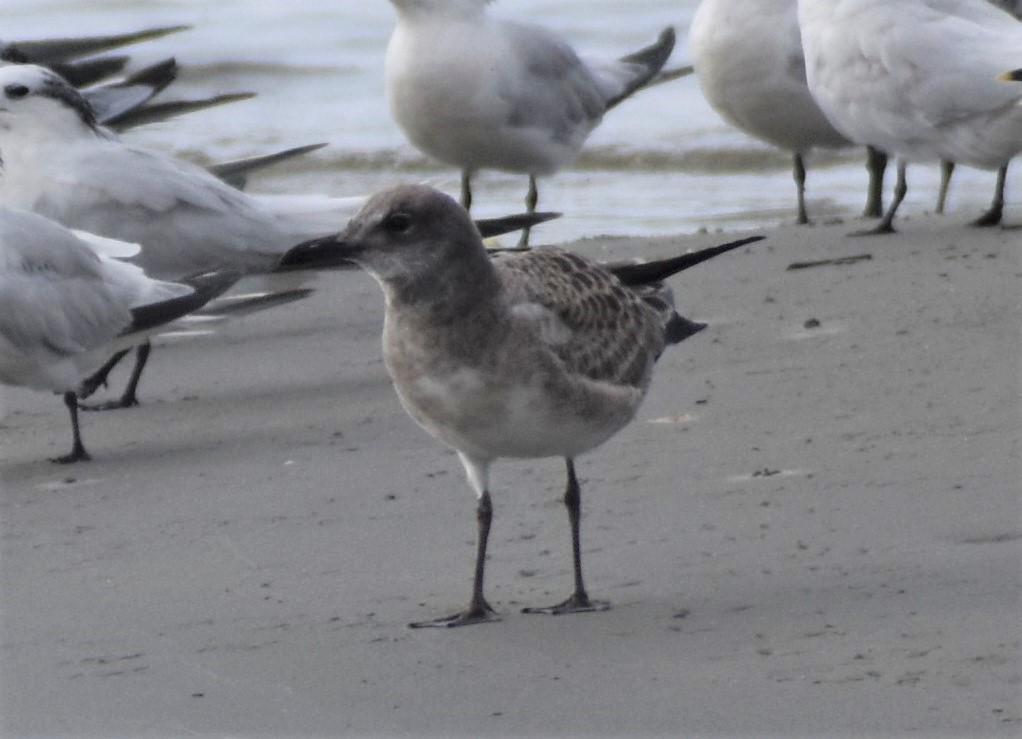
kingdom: Animalia
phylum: Chordata
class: Aves
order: Charadriiformes
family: Laridae
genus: Leucophaeus
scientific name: Leucophaeus atricilla
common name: Laughing gull
